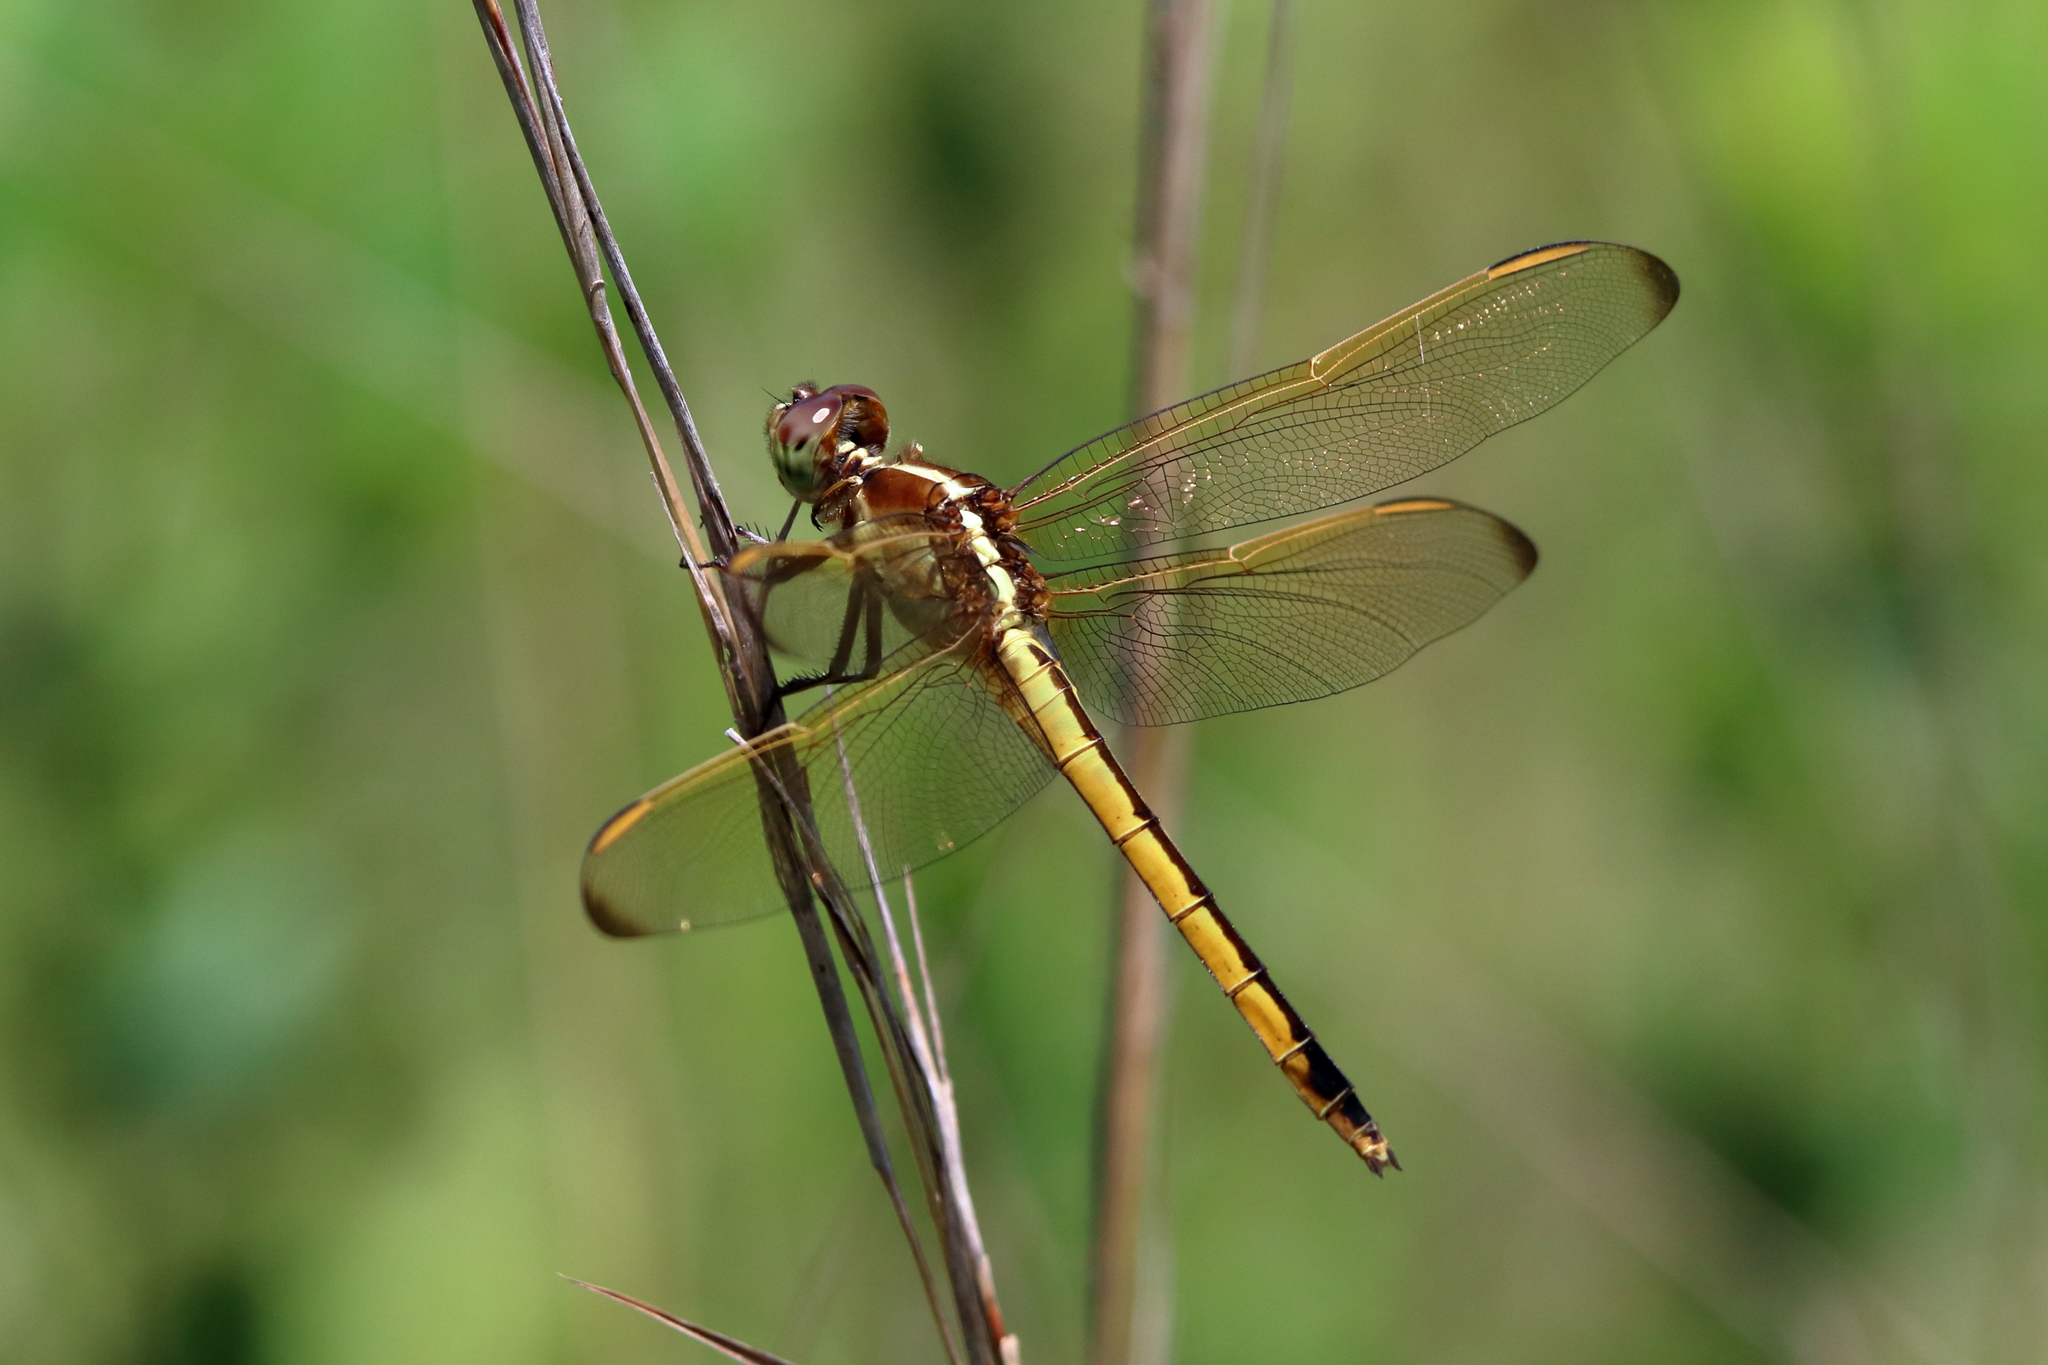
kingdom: Animalia
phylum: Arthropoda
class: Insecta
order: Odonata
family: Libellulidae
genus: Libellula
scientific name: Libellula needhami
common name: Needham's skimmer
